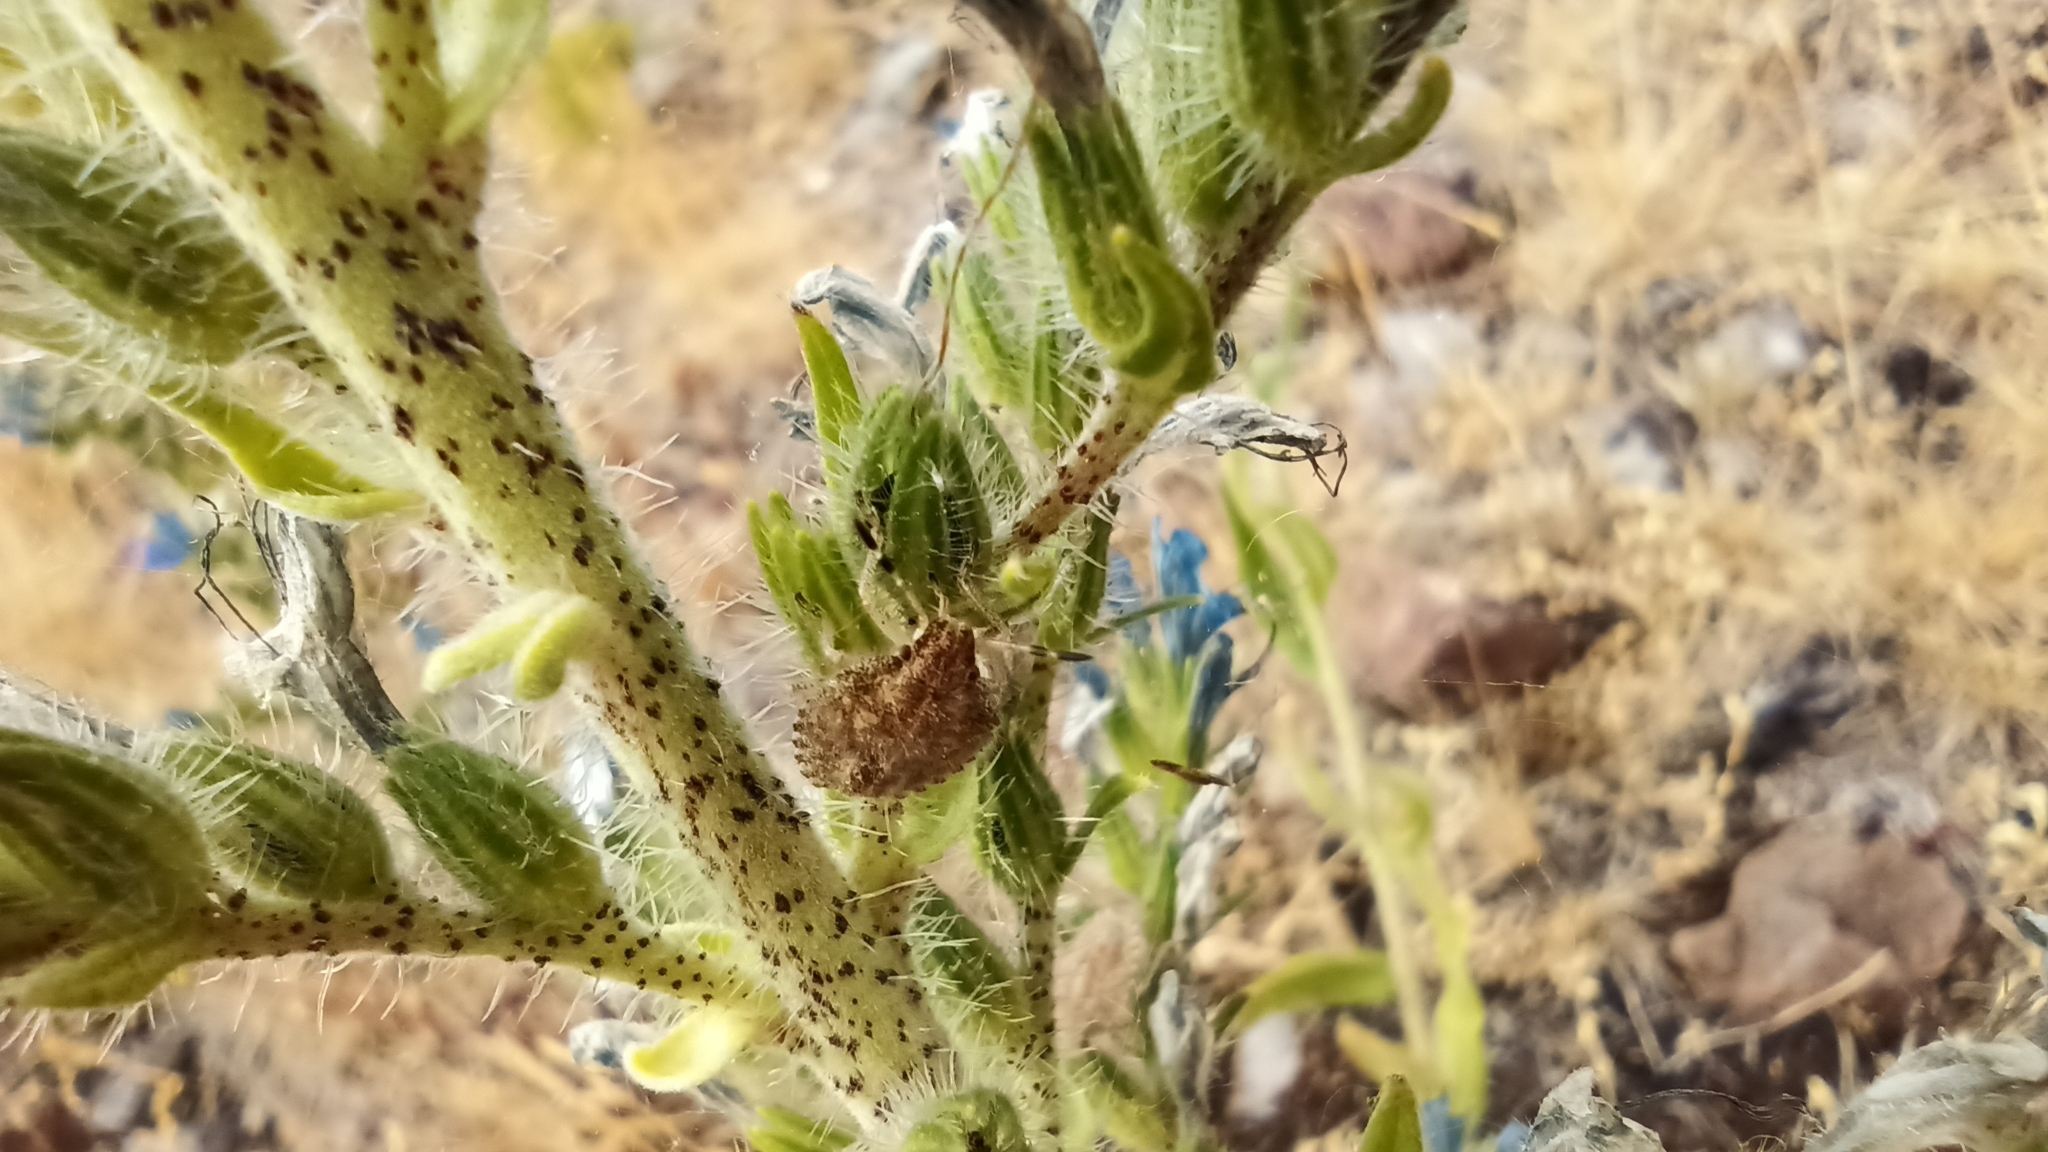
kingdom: Animalia
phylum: Arthropoda
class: Insecta
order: Hemiptera
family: Pentatomidae
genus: Dolycoris
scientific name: Dolycoris baccarum
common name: Sloe bug
